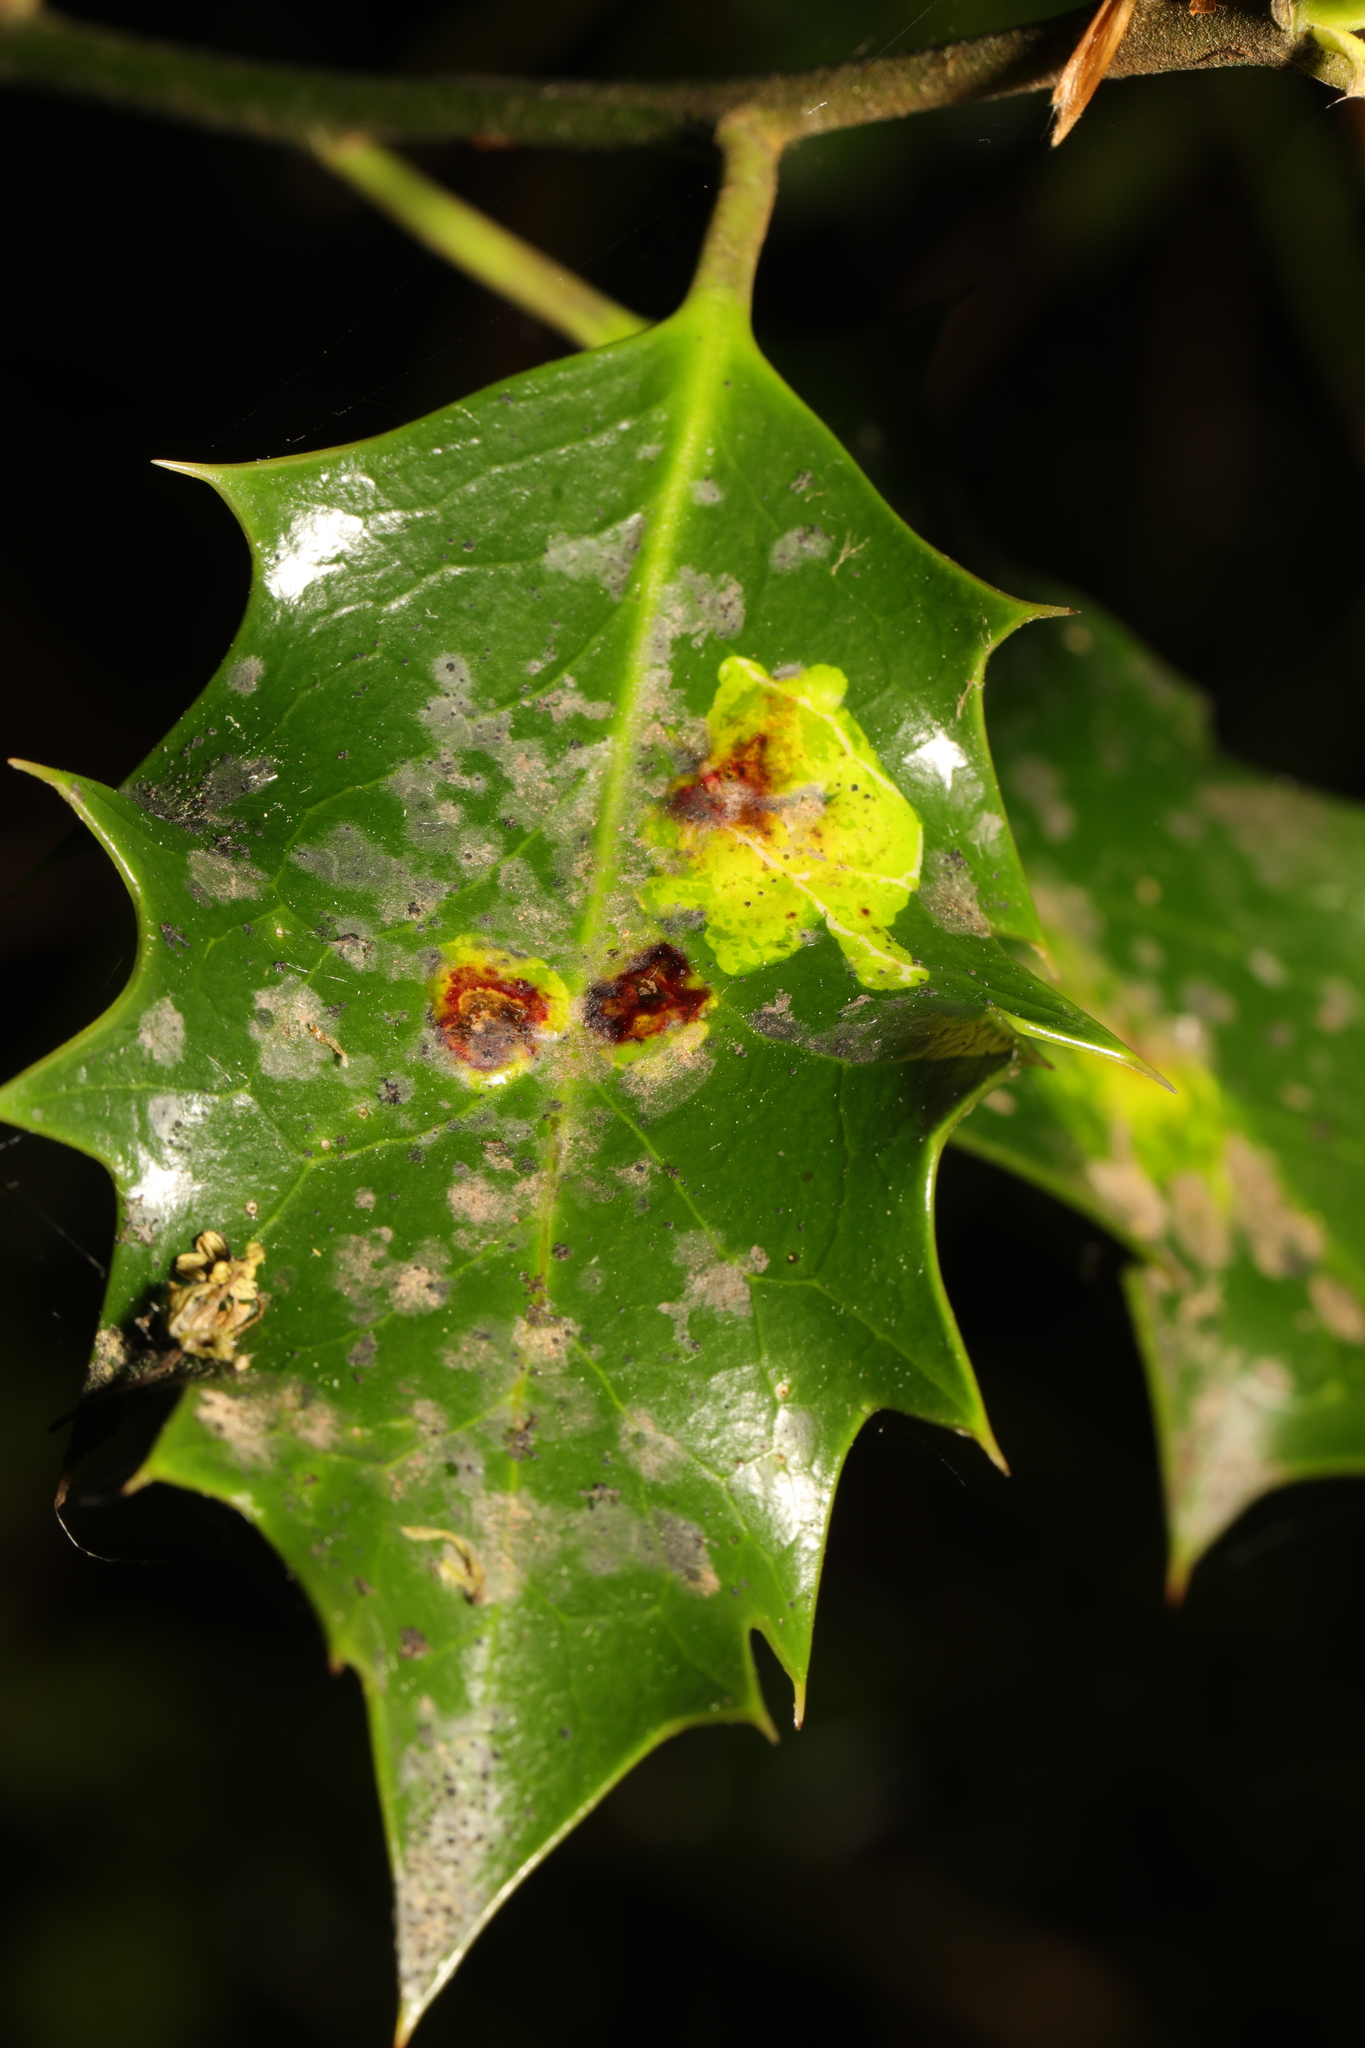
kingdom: Animalia
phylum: Arthropoda
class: Insecta
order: Diptera
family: Agromyzidae
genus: Phytomyza
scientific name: Phytomyza ilicis
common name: Holly leafminer
